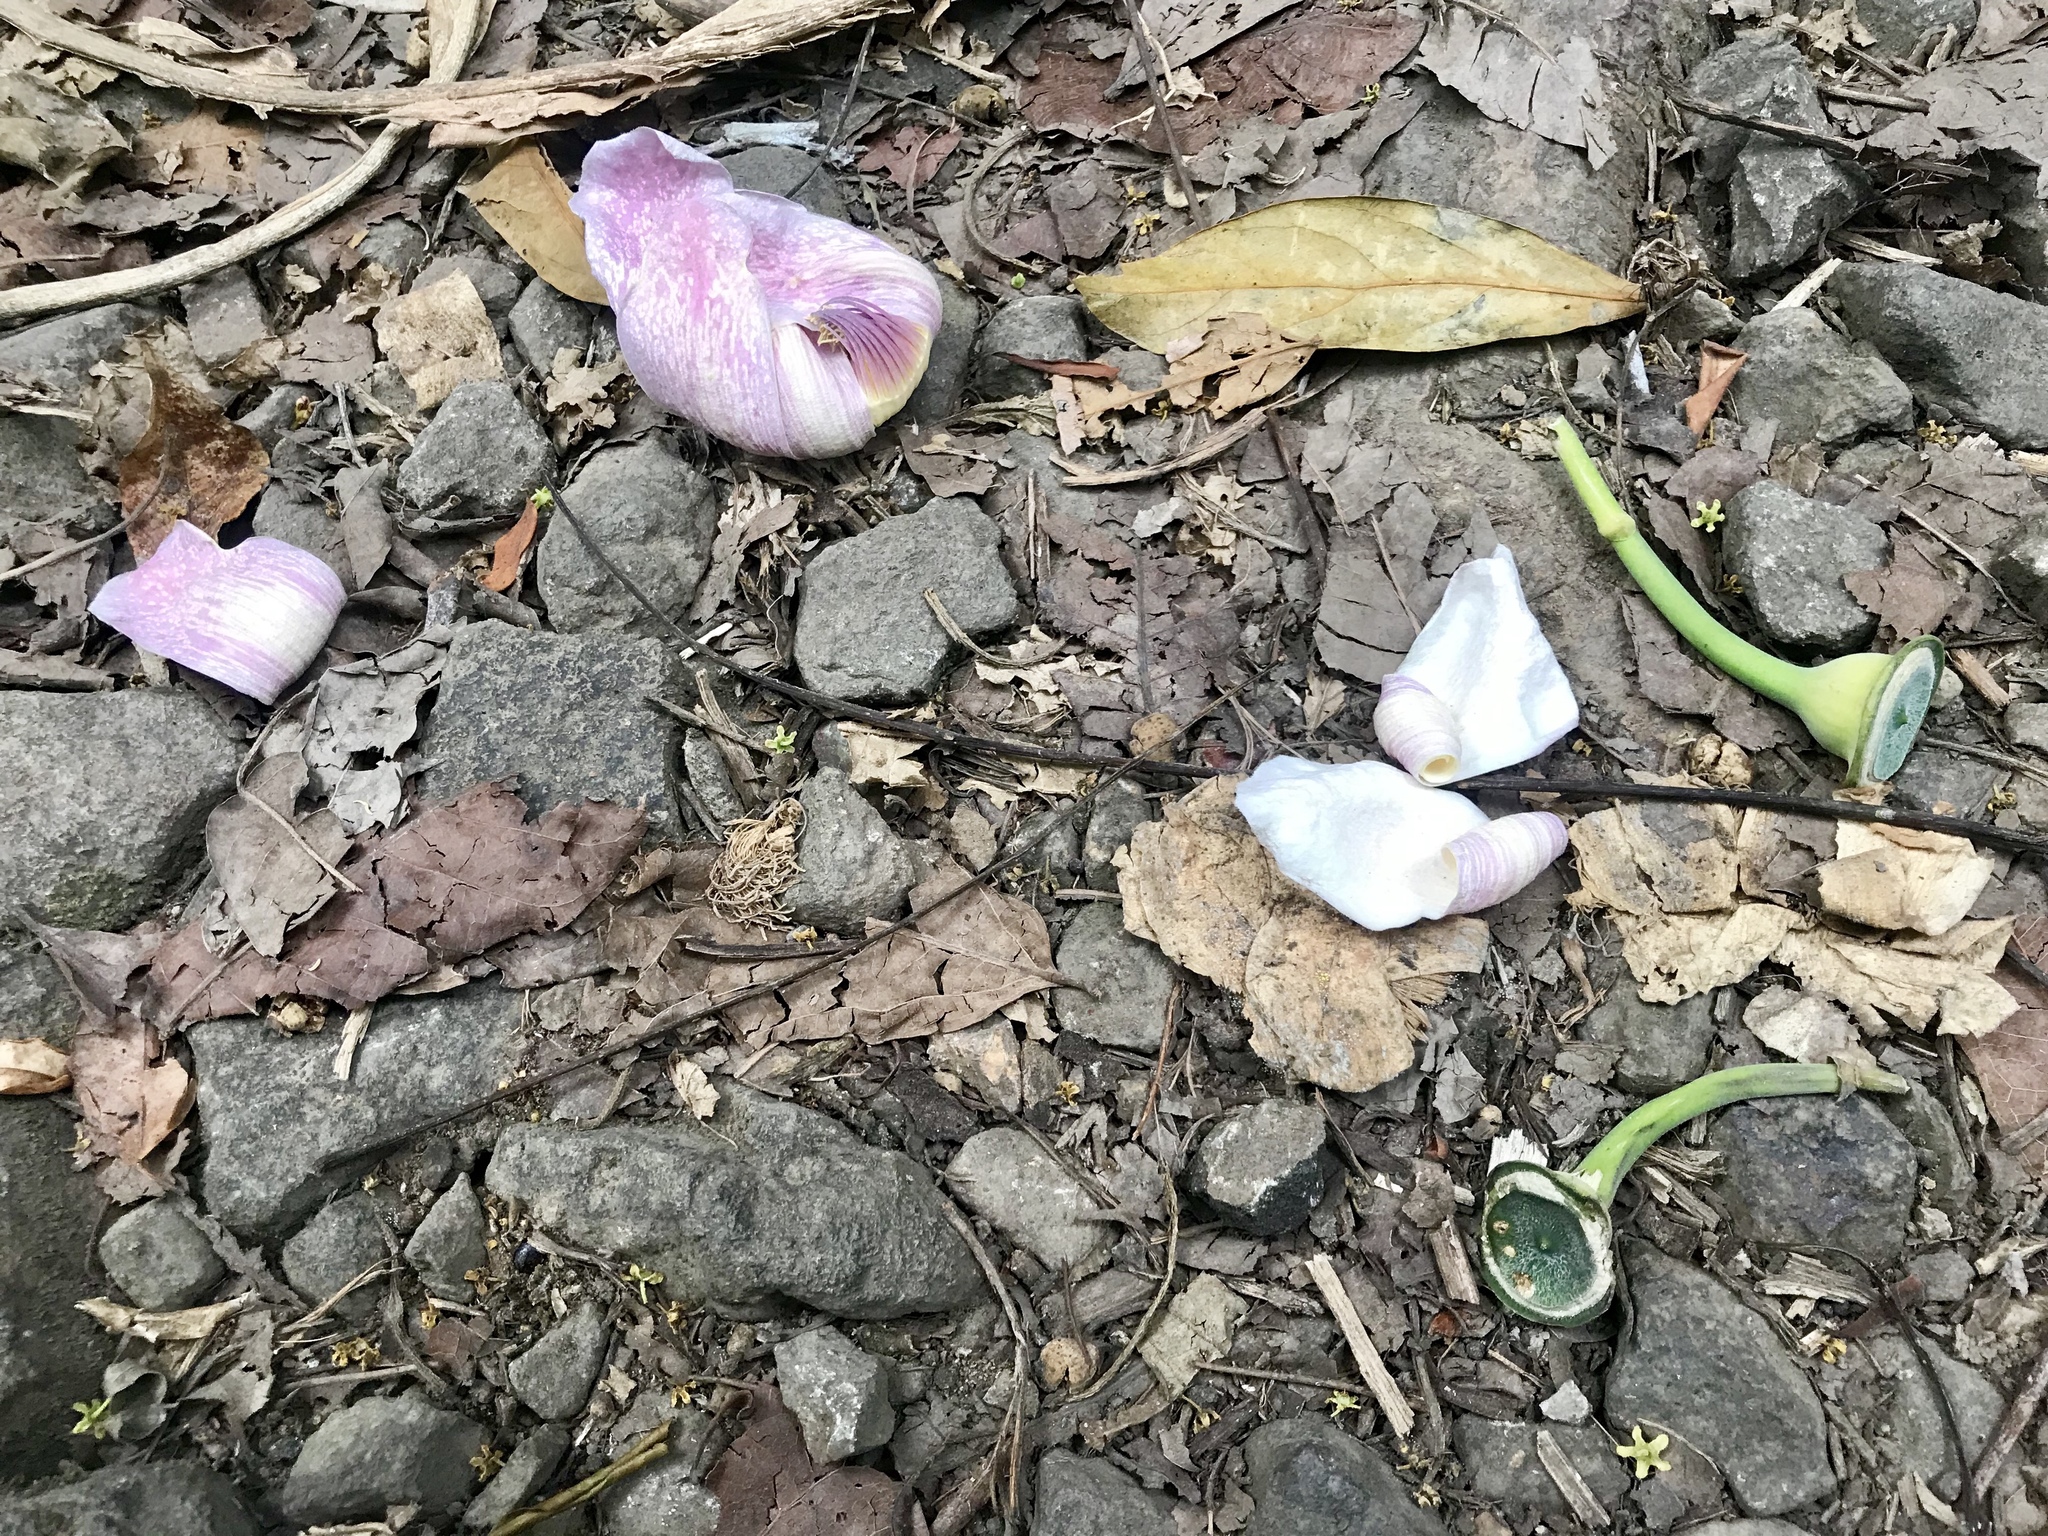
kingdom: Plantae
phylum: Tracheophyta
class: Magnoliopsida
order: Ericales
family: Lecythidaceae
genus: Gustavia
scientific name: Gustavia superba
